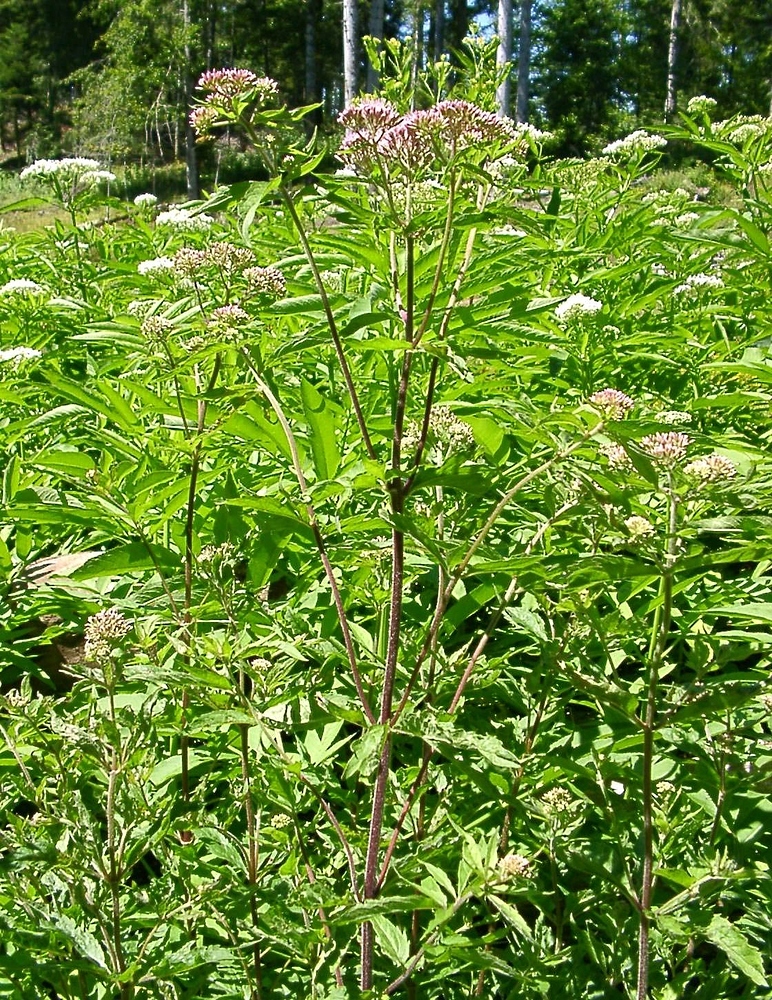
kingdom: Plantae
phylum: Tracheophyta
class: Magnoliopsida
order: Asterales
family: Asteraceae
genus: Eupatorium
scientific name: Eupatorium cannabinum
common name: Hemp-agrimony
